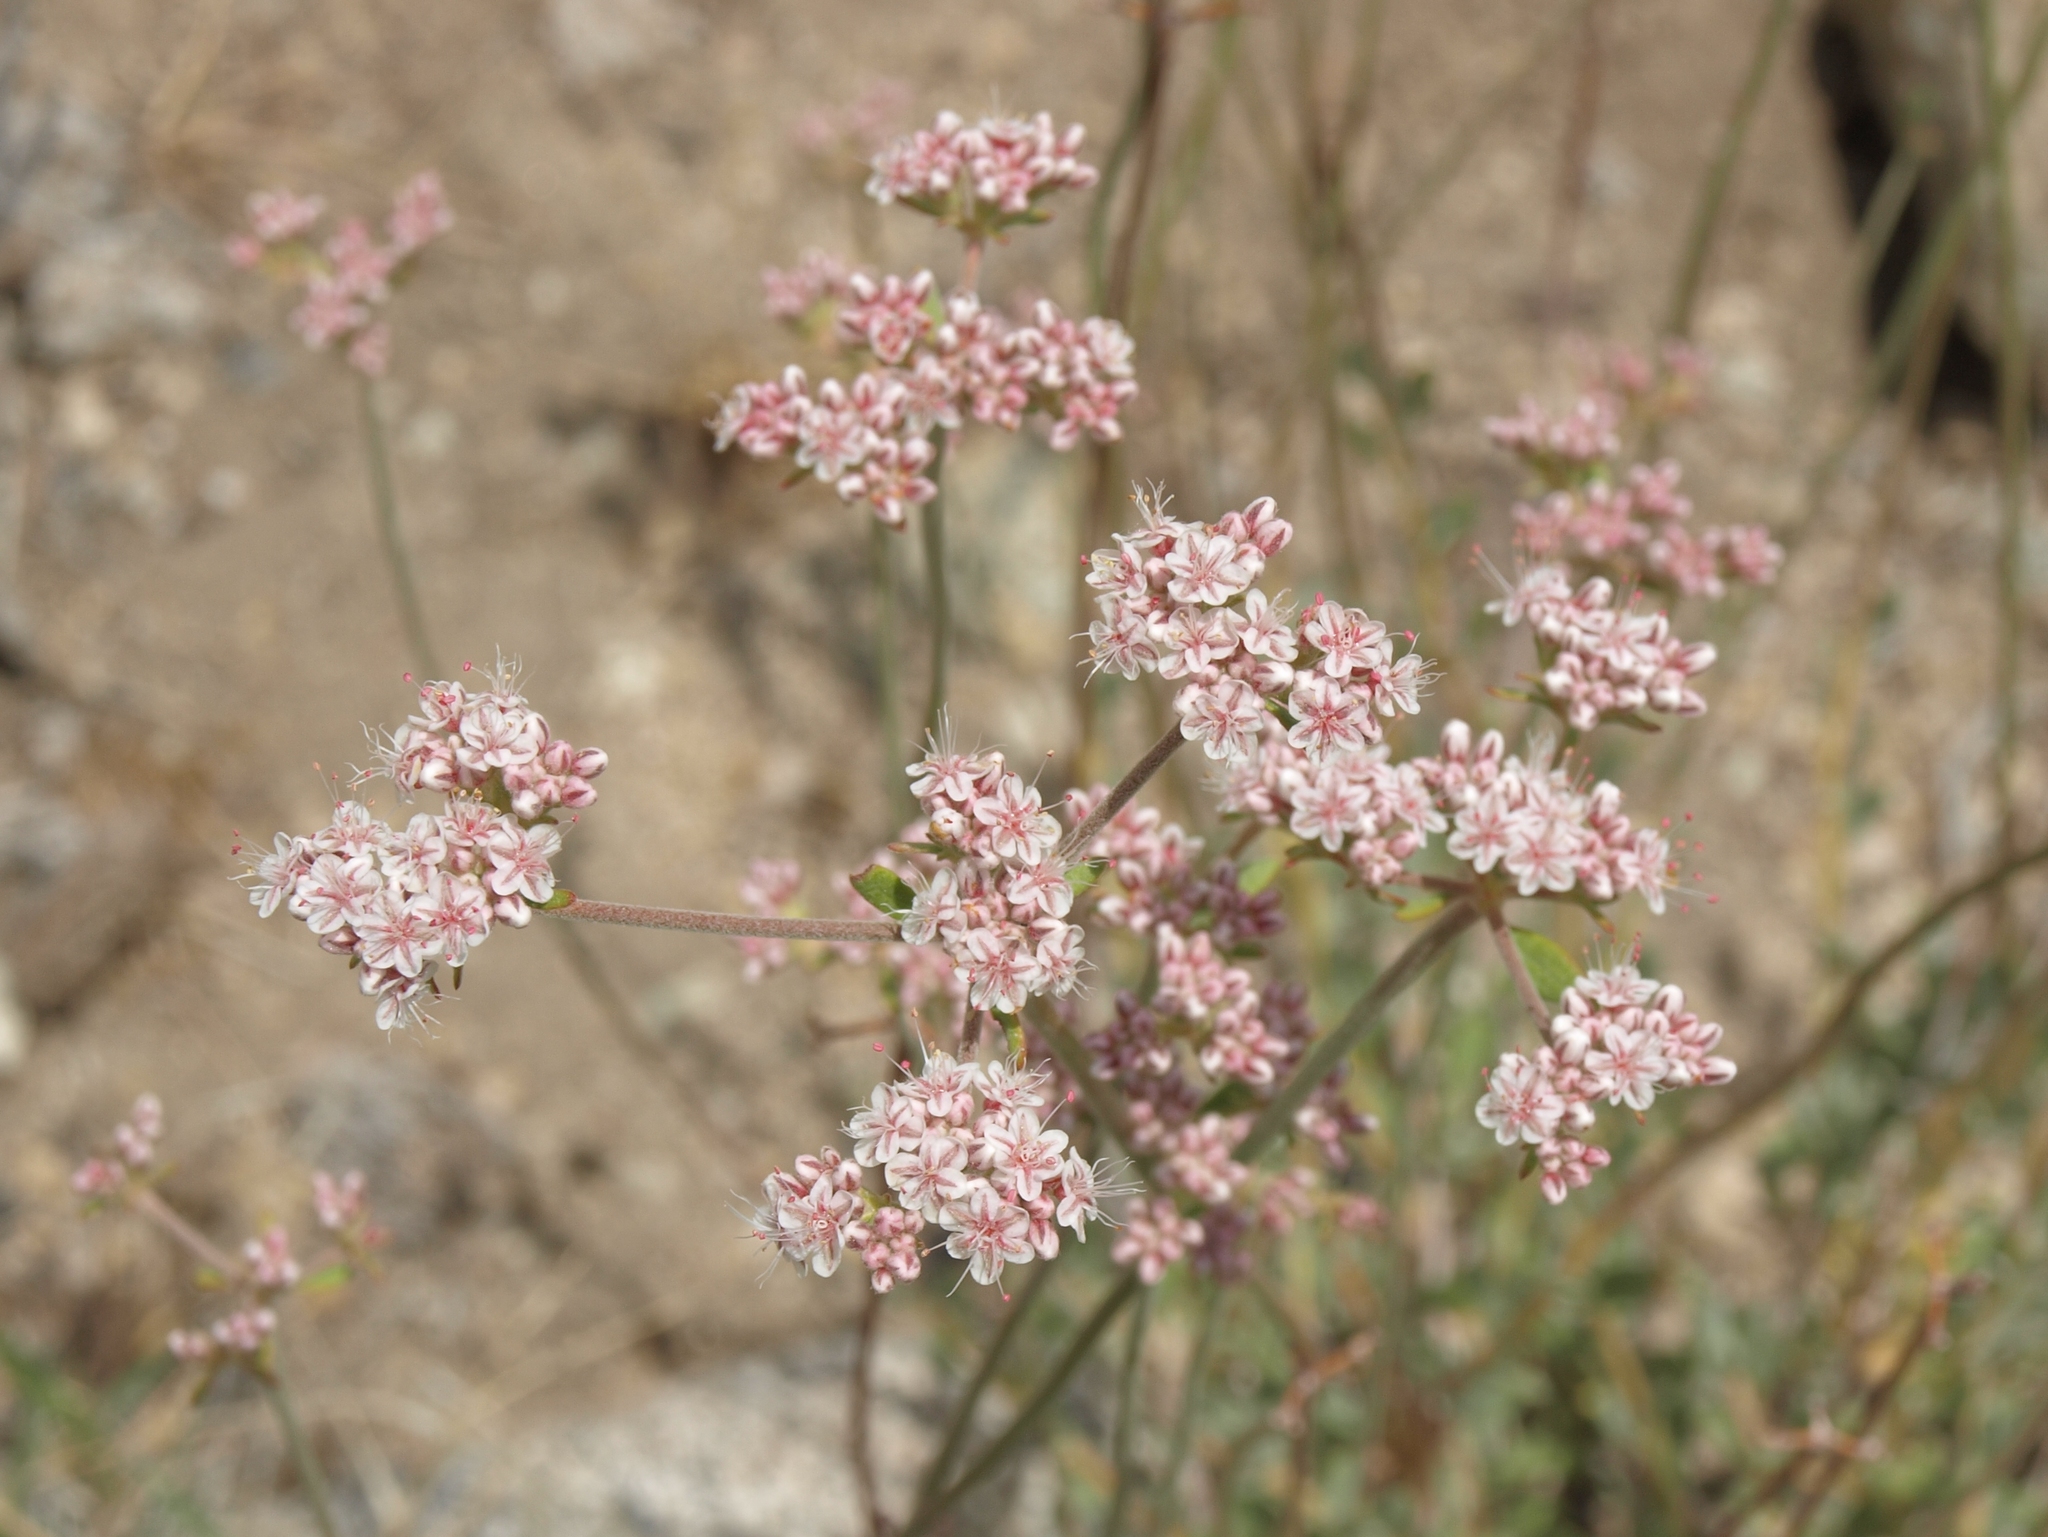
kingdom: Plantae
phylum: Tracheophyta
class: Magnoliopsida
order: Caryophyllales
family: Polygonaceae
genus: Eriogonum
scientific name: Eriogonum fasciculatum
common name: California wild buckwheat
